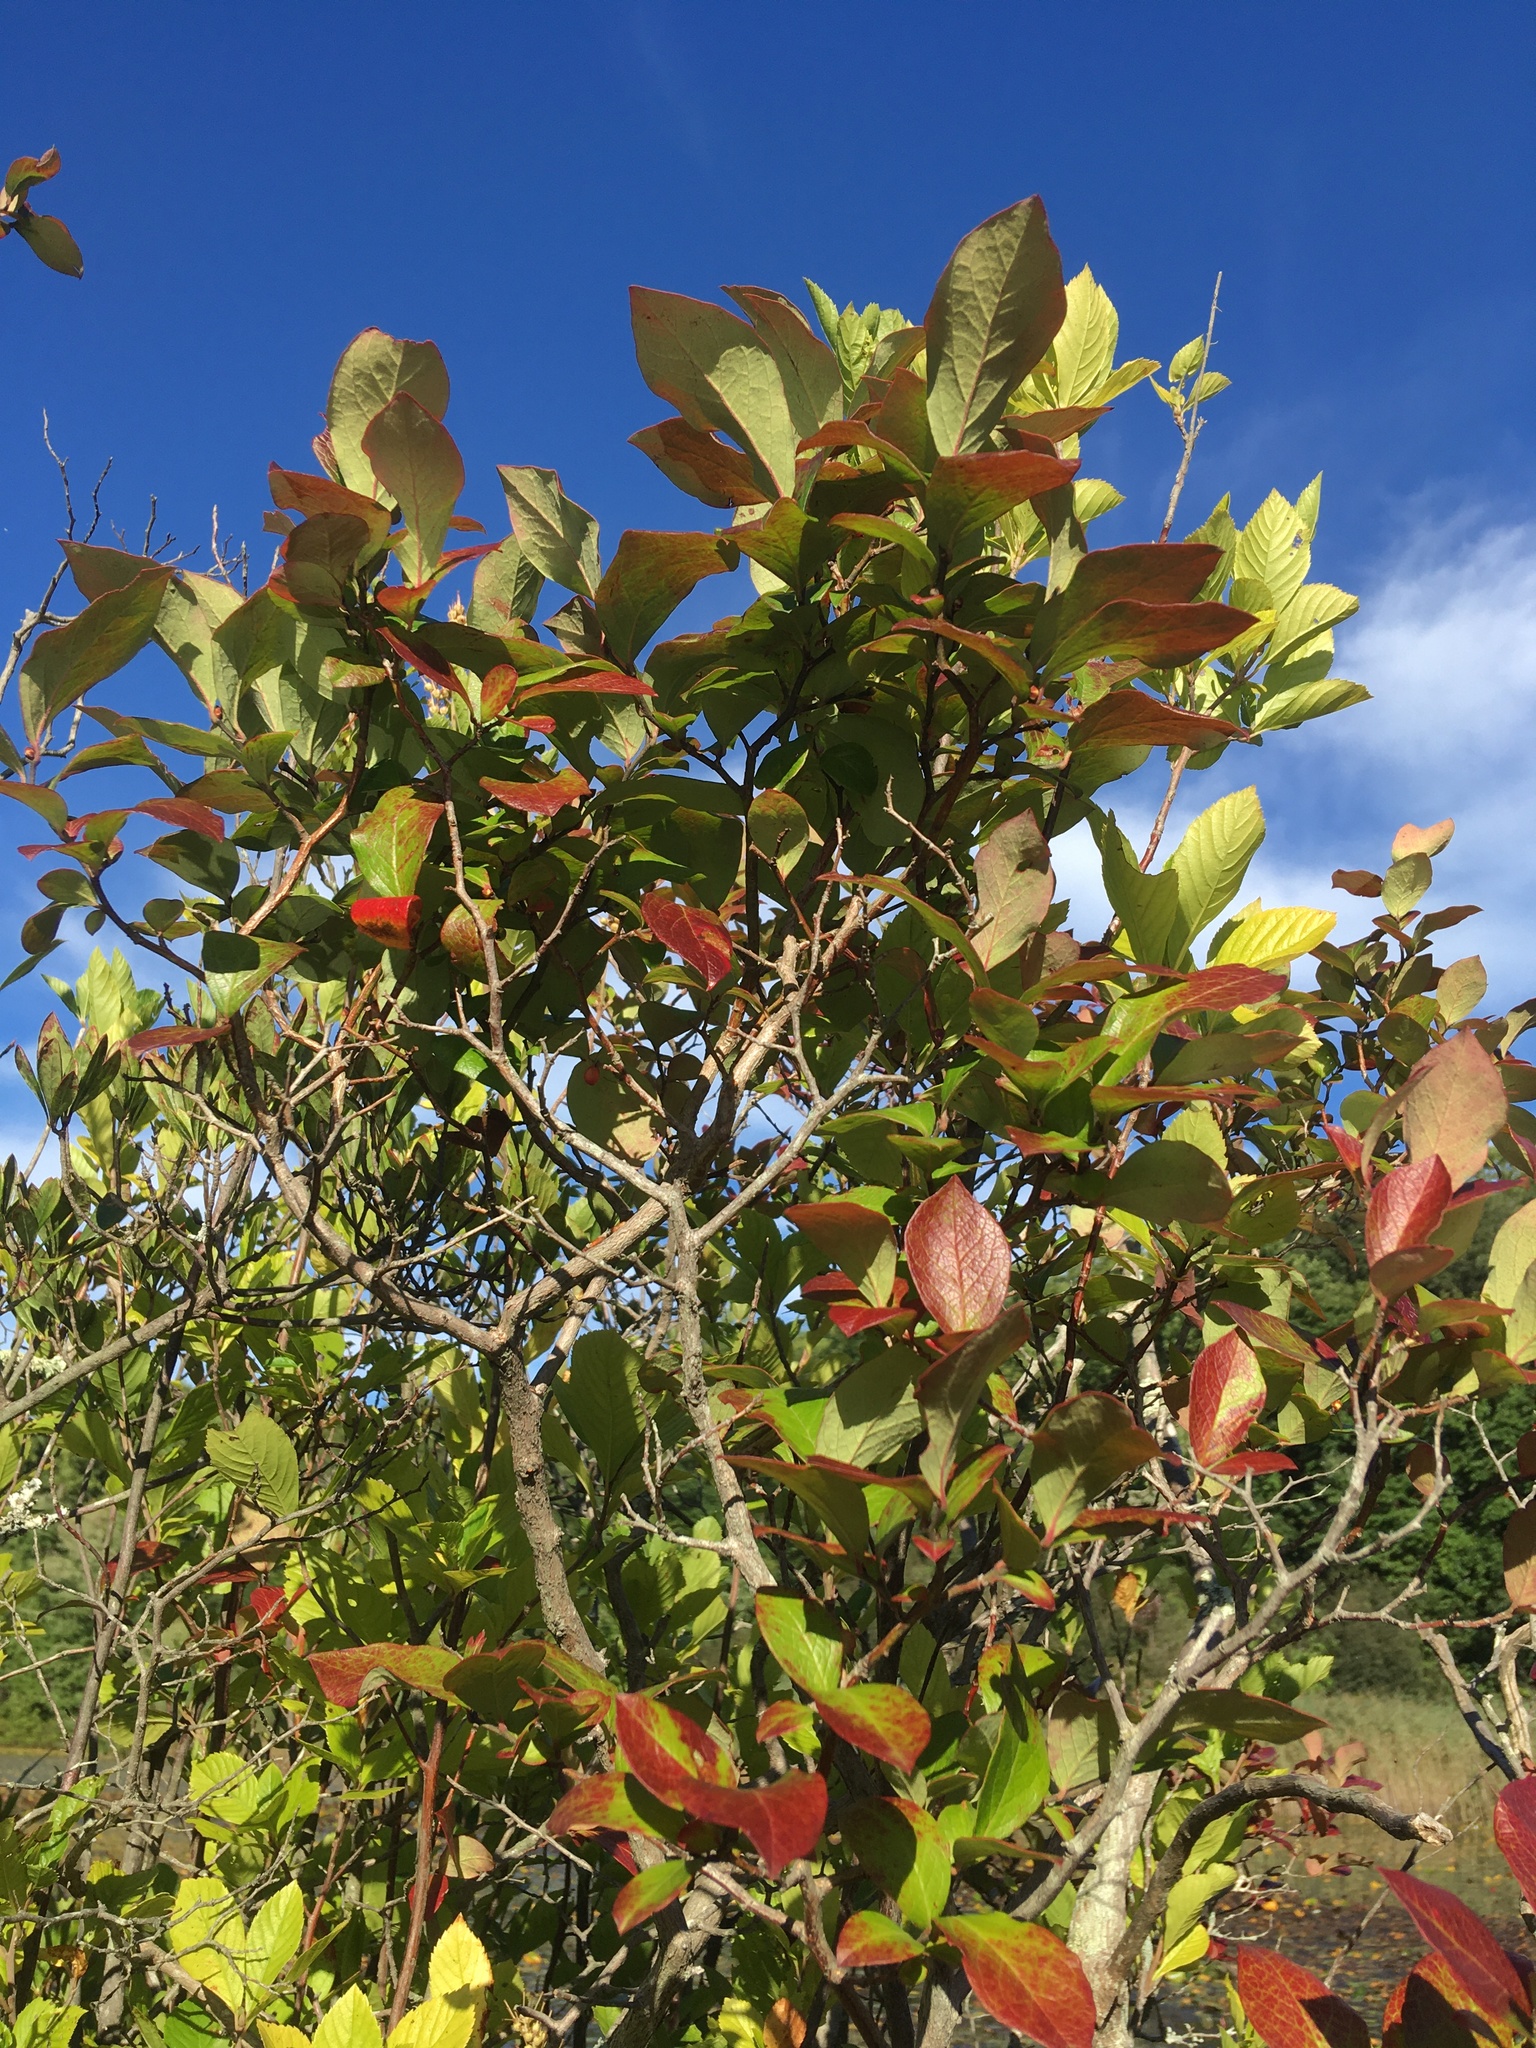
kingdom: Plantae
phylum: Tracheophyta
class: Magnoliopsida
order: Ericales
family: Ericaceae
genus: Vaccinium
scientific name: Vaccinium corymbosum
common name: Blueberry
